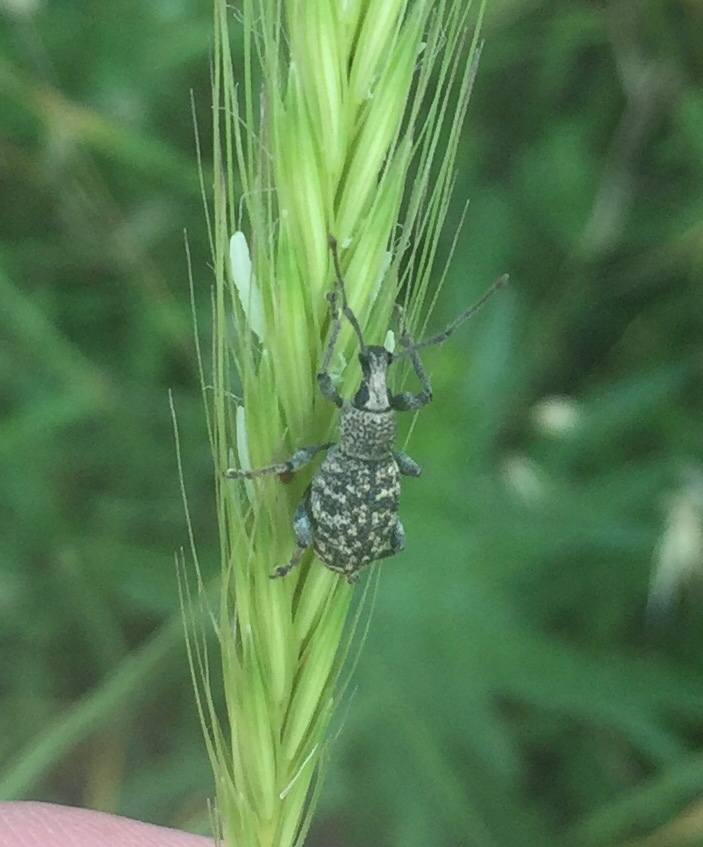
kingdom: Animalia
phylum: Arthropoda
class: Insecta
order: Coleoptera
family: Curculionidae
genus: Otiorhynchus
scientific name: Otiorhynchus zebei
